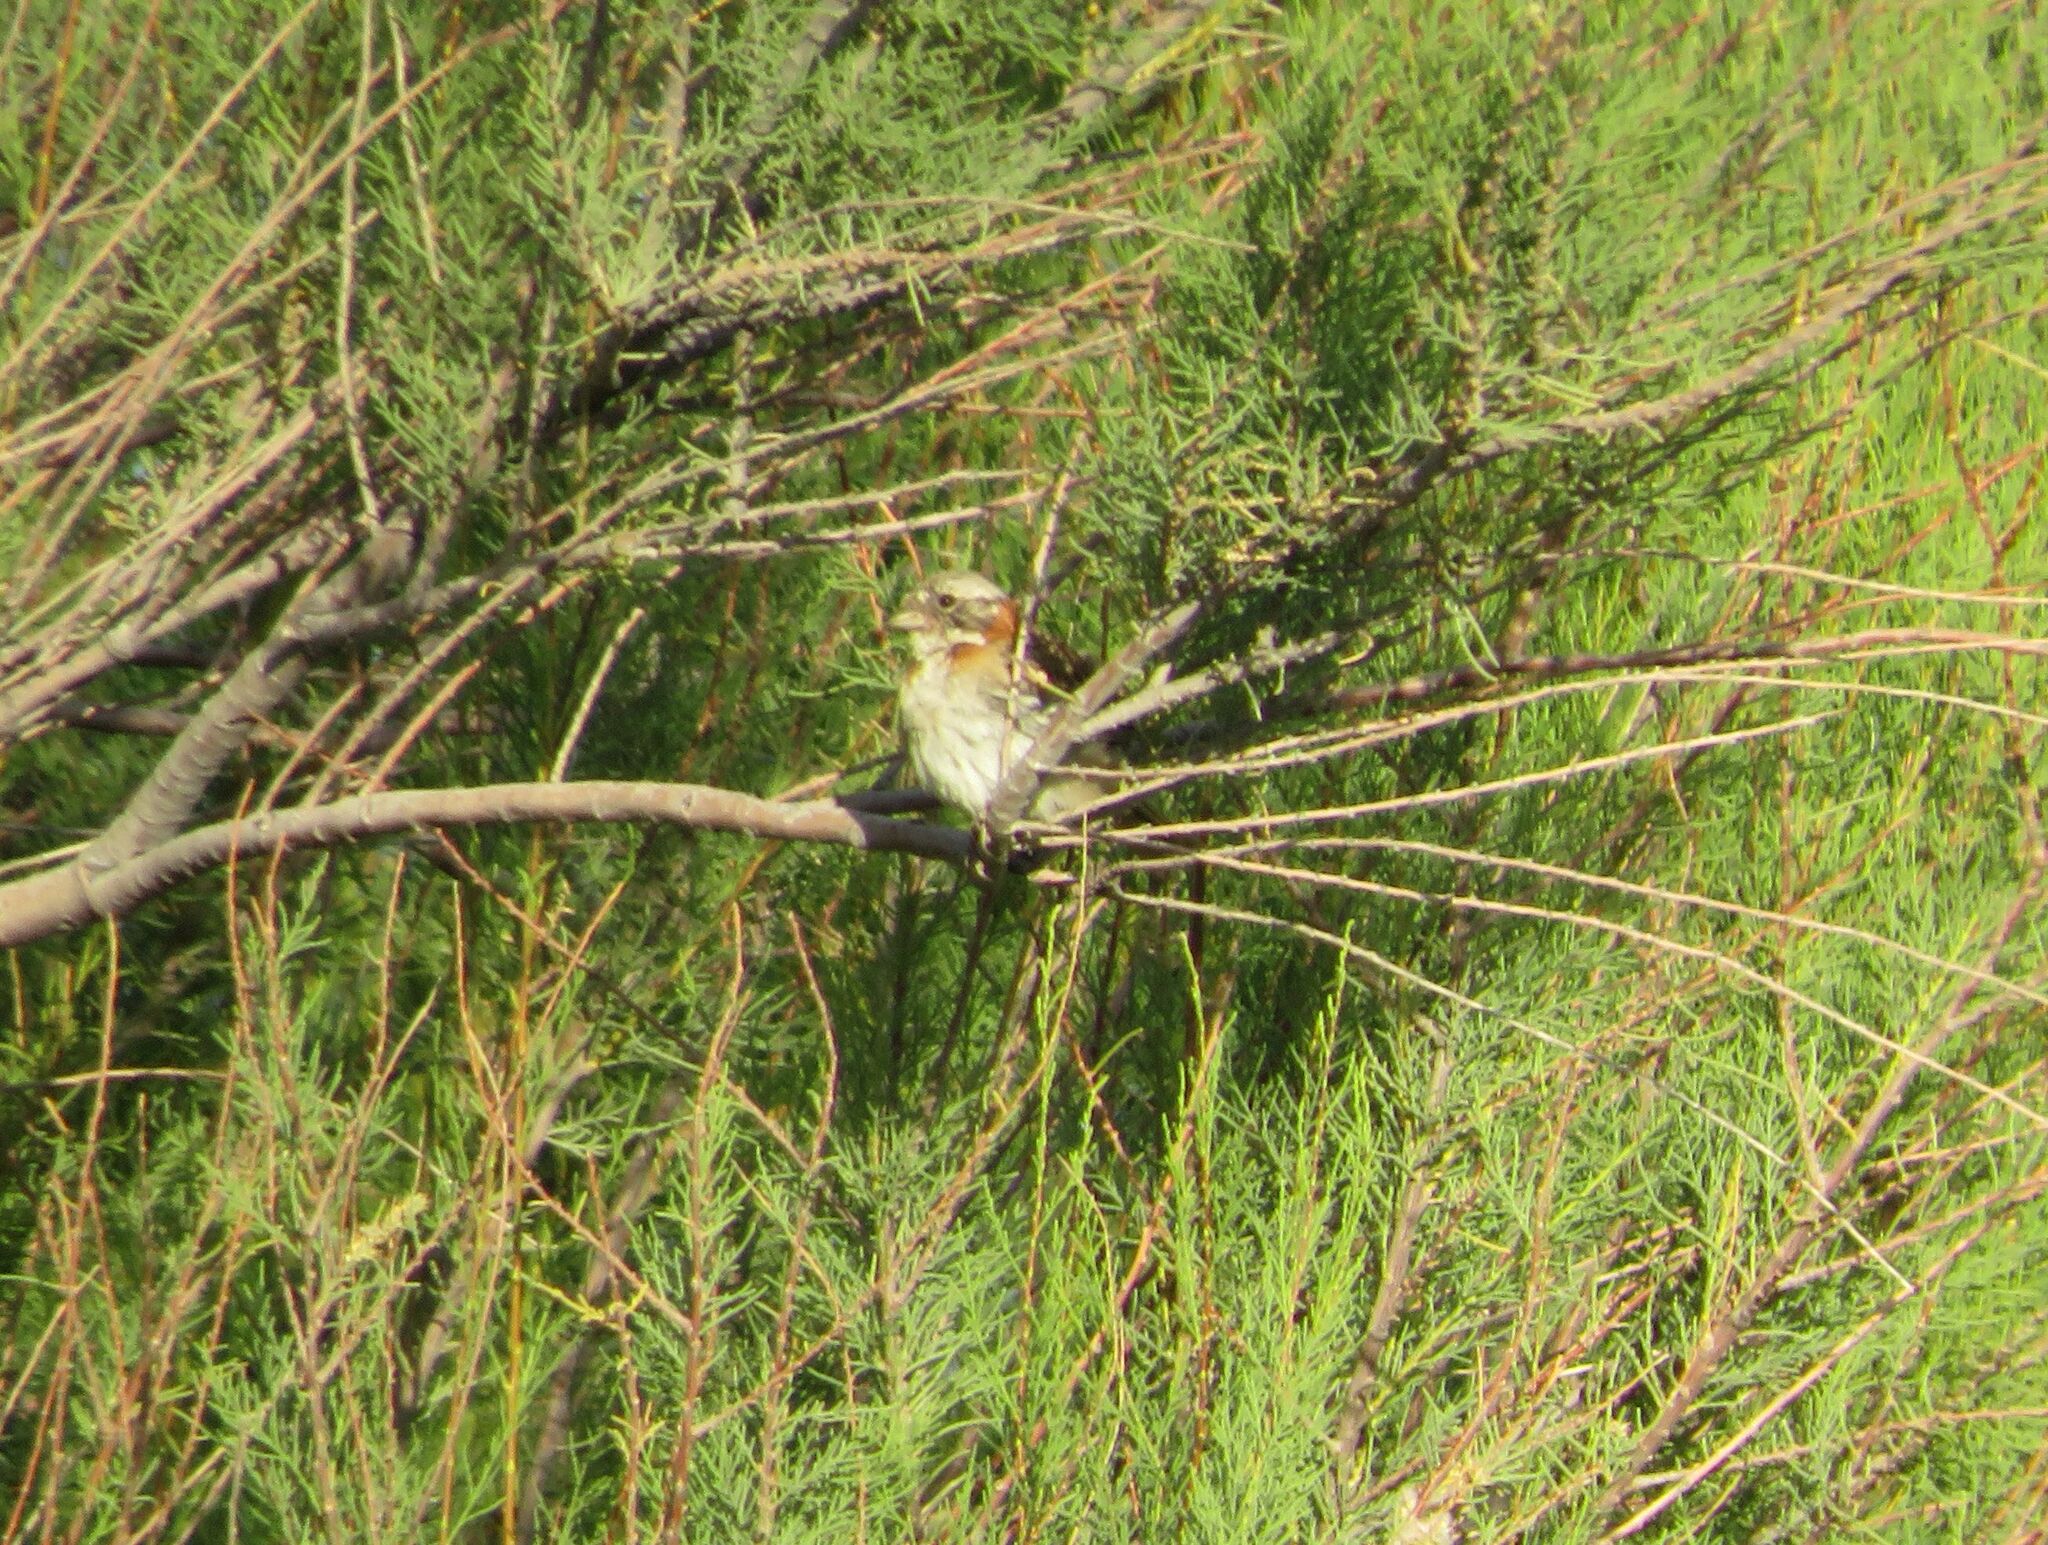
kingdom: Animalia
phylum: Chordata
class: Aves
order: Passeriformes
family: Passerellidae
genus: Zonotrichia
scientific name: Zonotrichia capensis
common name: Rufous-collared sparrow
